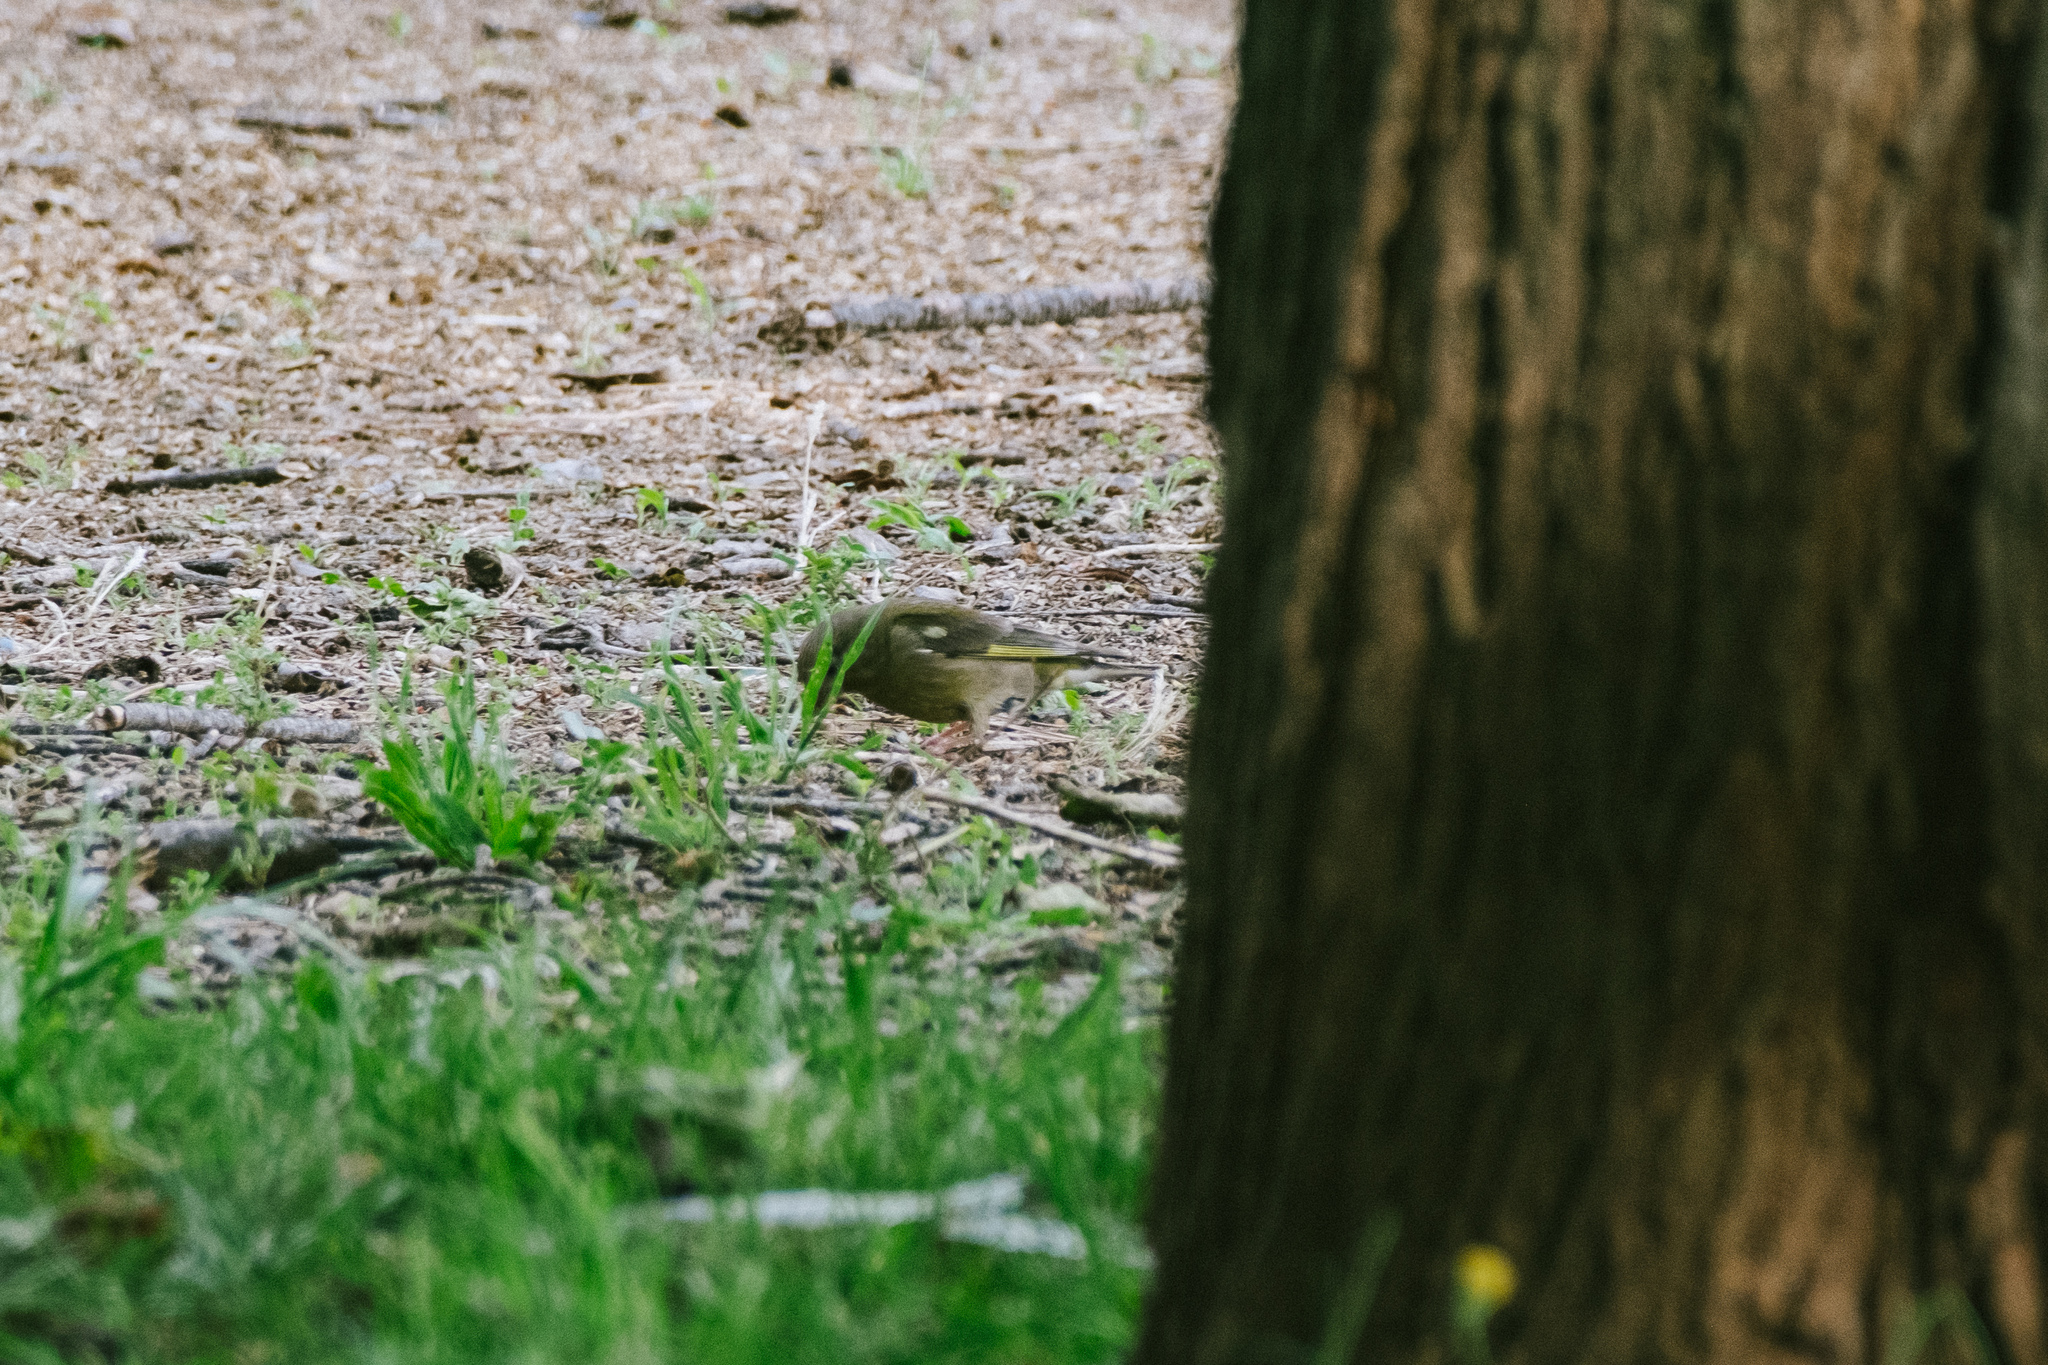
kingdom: Plantae
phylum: Tracheophyta
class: Liliopsida
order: Poales
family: Poaceae
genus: Chloris
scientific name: Chloris chloris
